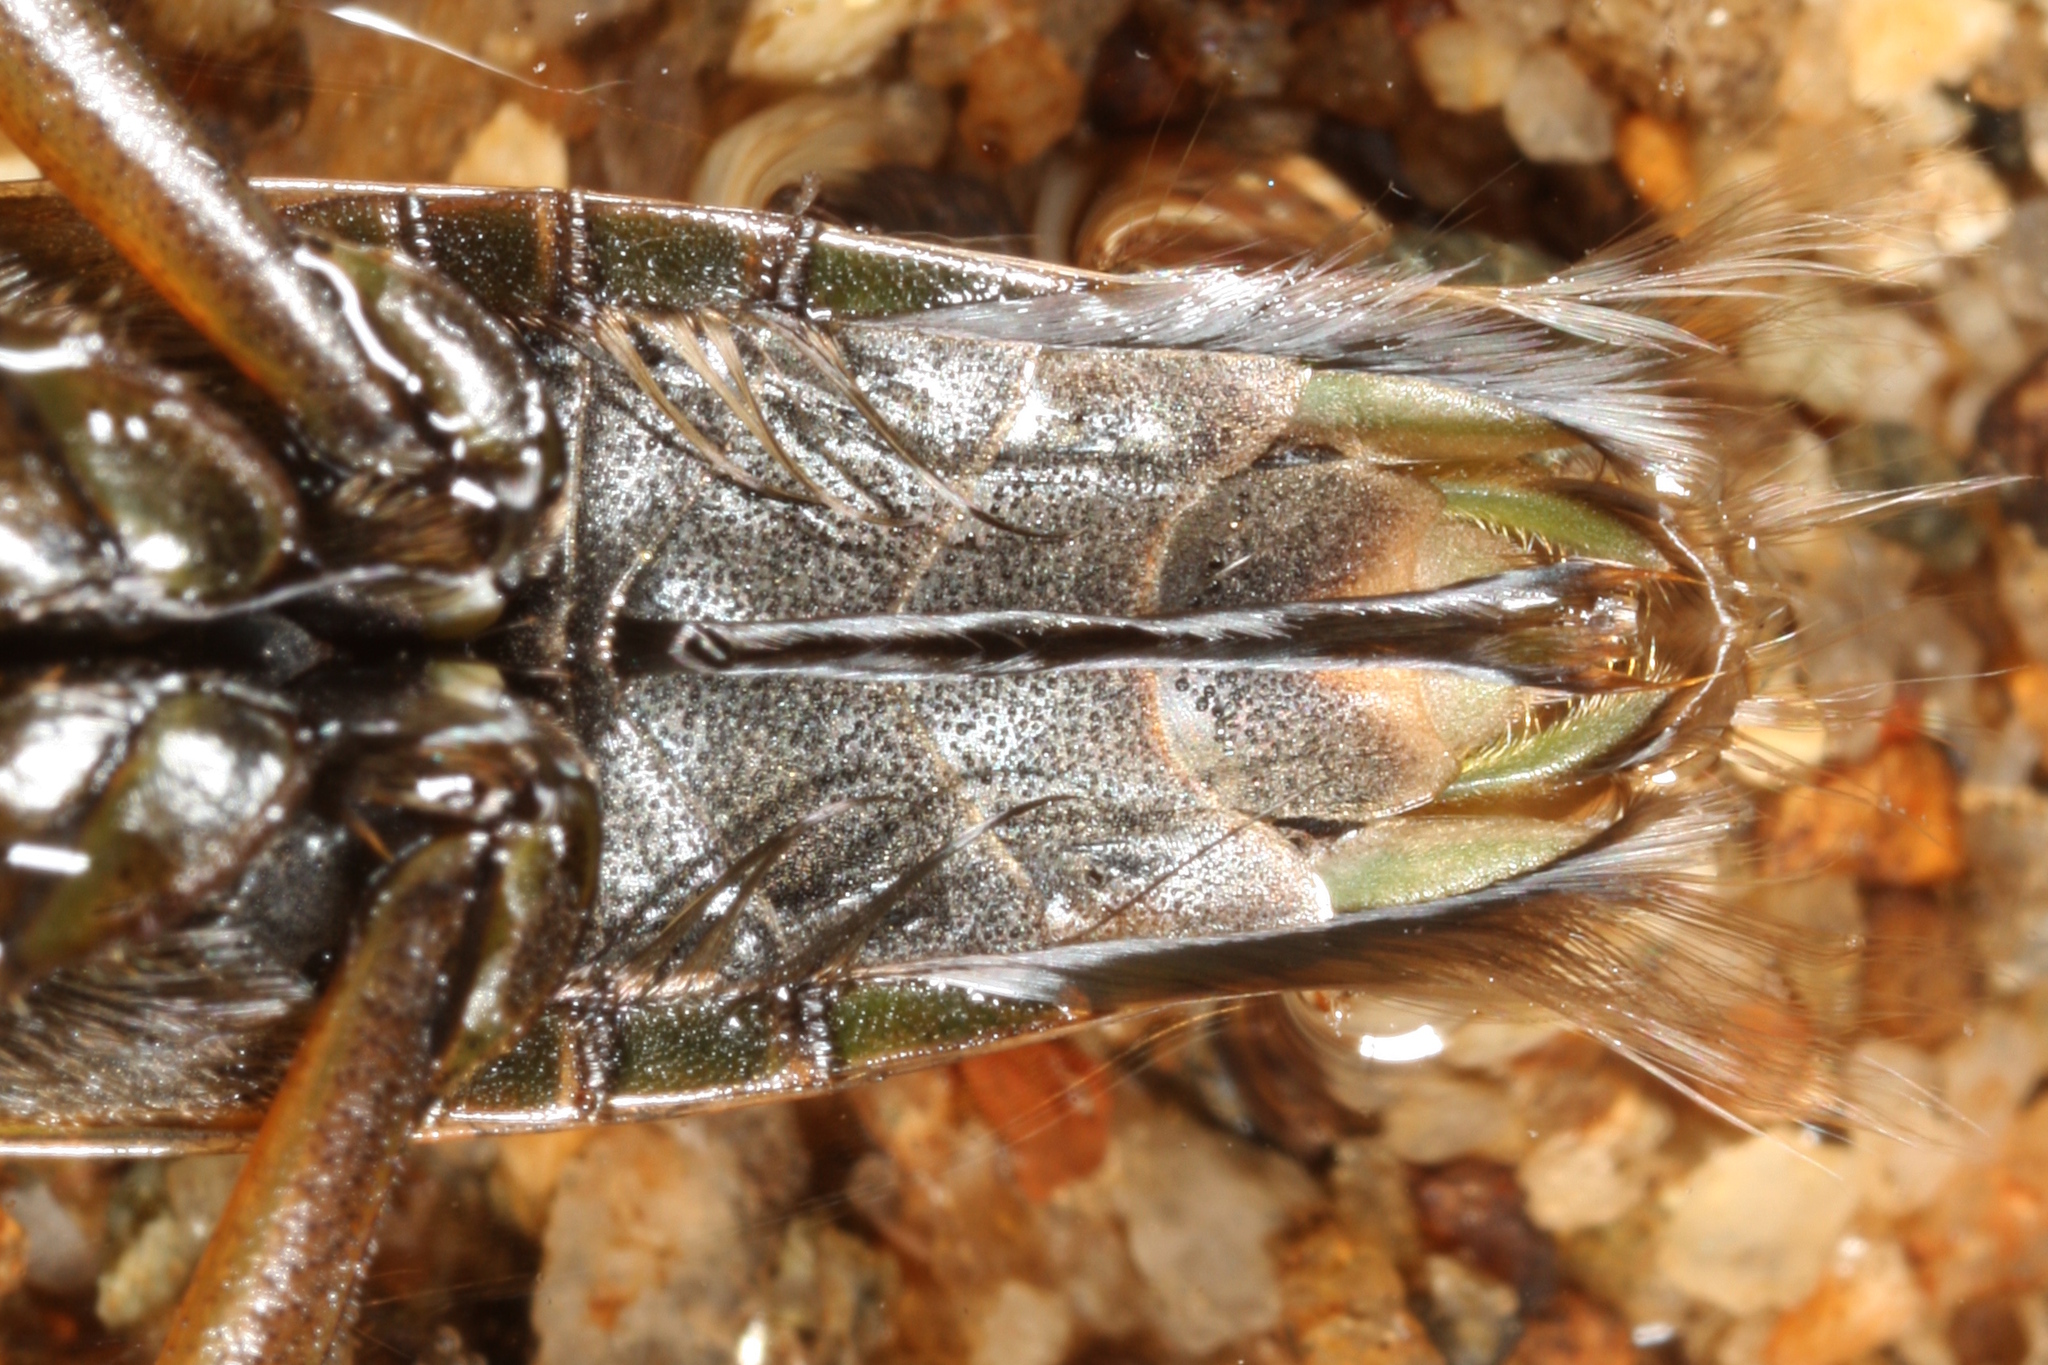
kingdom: Animalia
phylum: Arthropoda
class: Insecta
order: Hemiptera
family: Notonectidae
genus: Notonecta
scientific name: Notonecta glauca
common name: Common water-boatman
